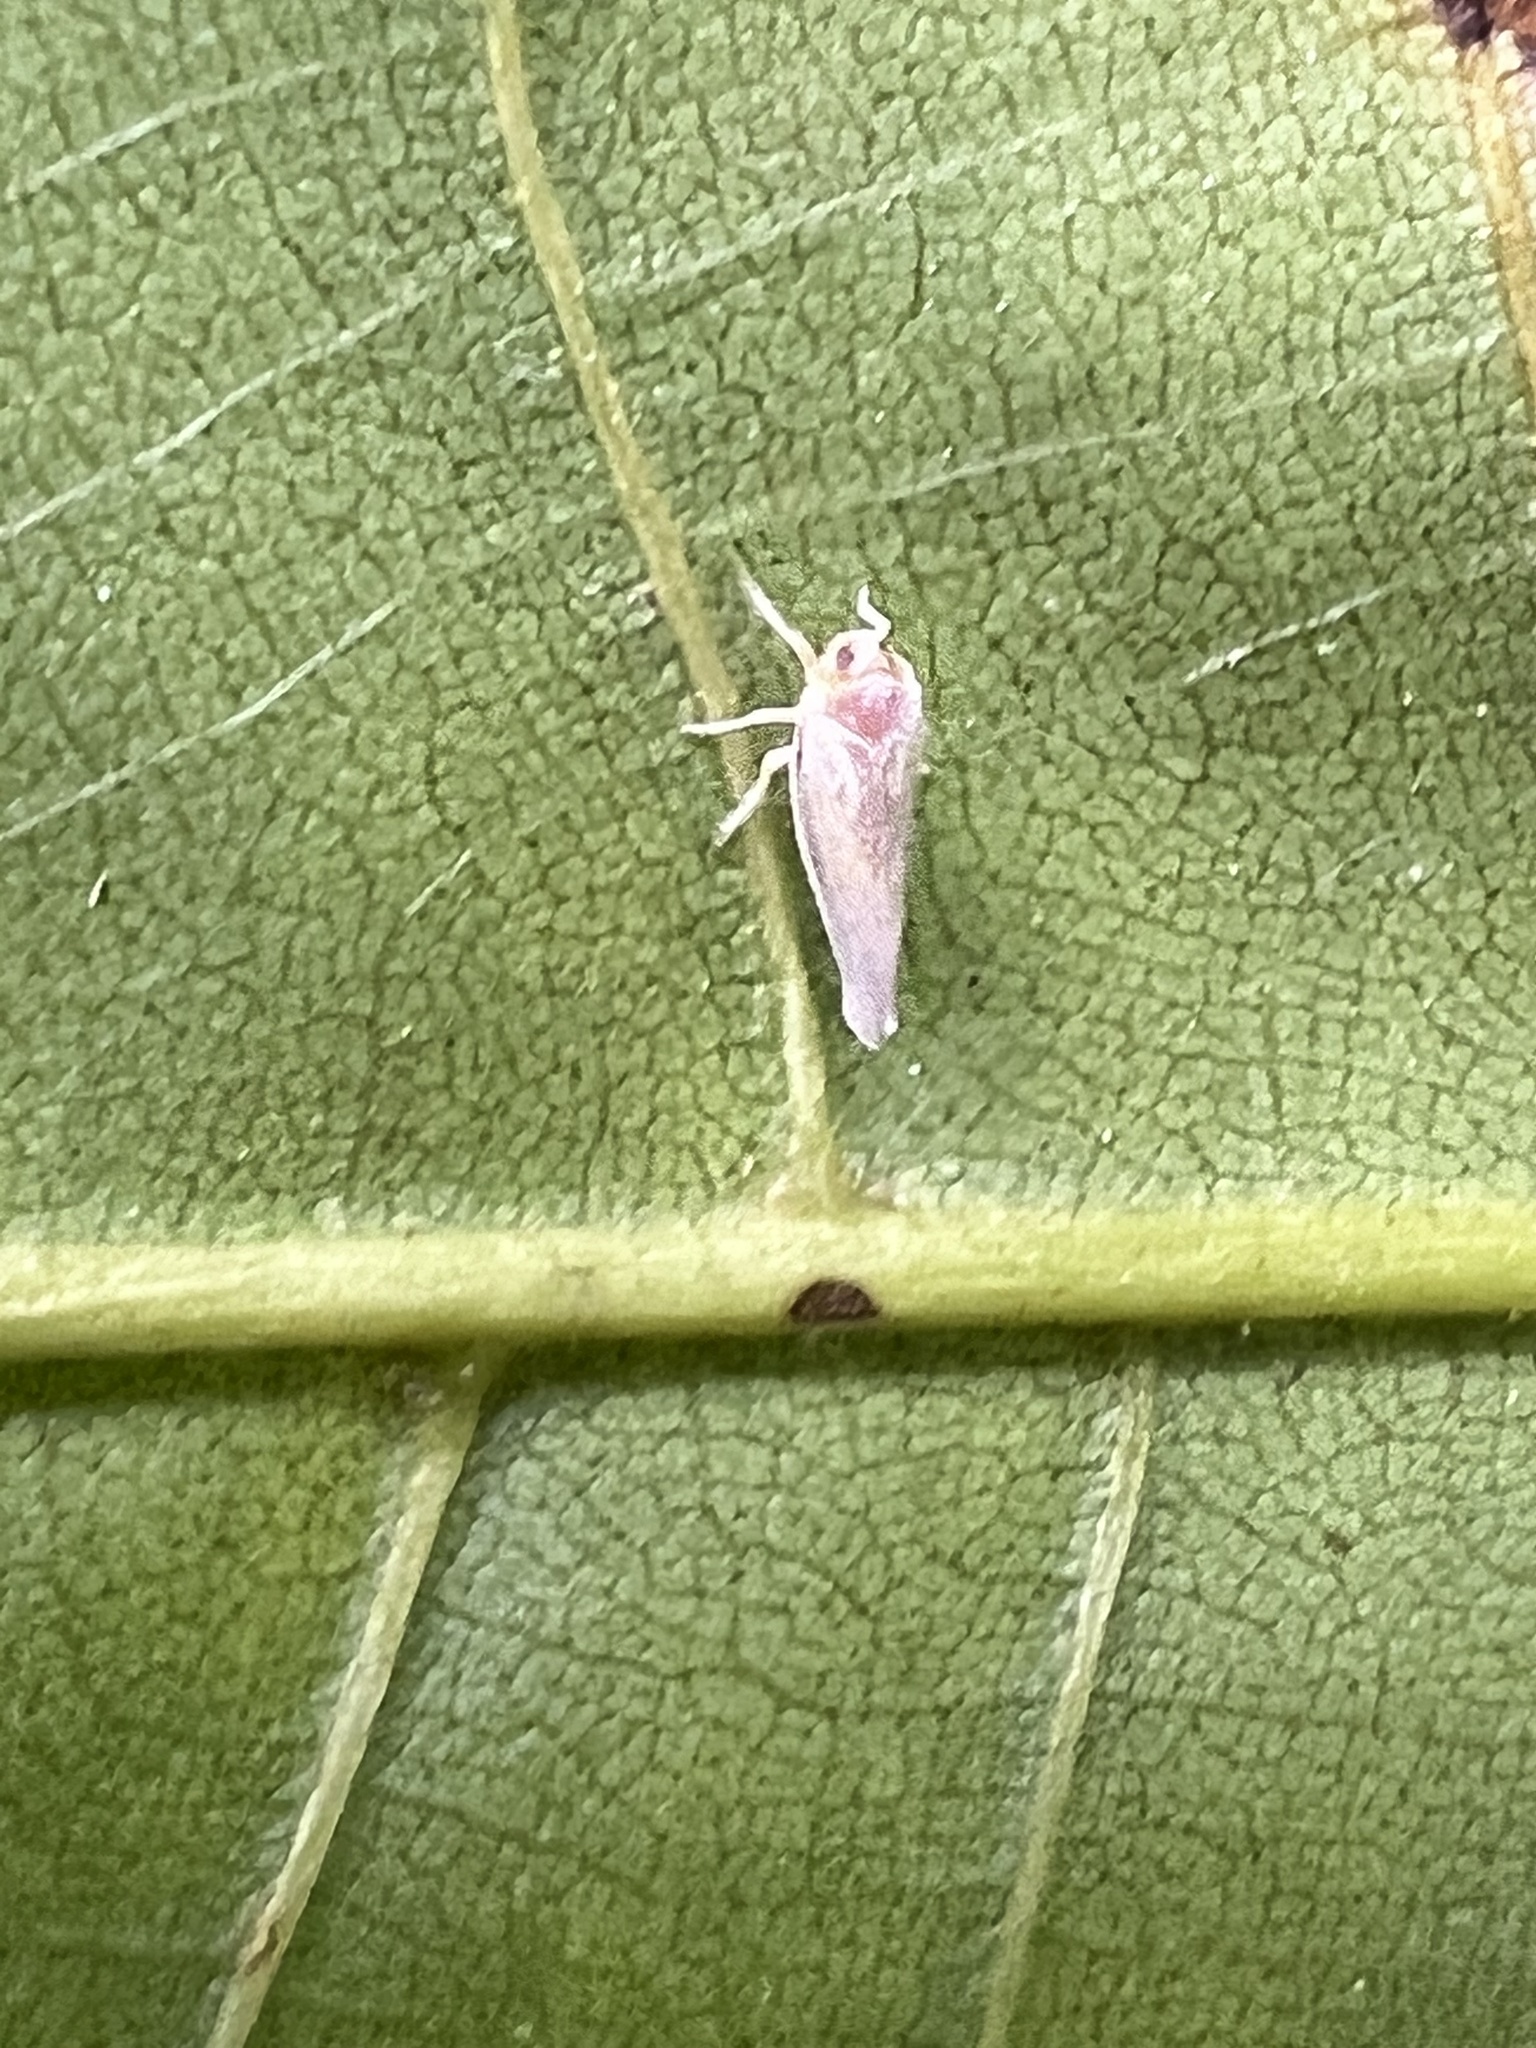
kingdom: Animalia
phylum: Arthropoda
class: Insecta
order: Hemiptera
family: Derbidae
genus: Omolicna
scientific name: Omolicna uhleri
